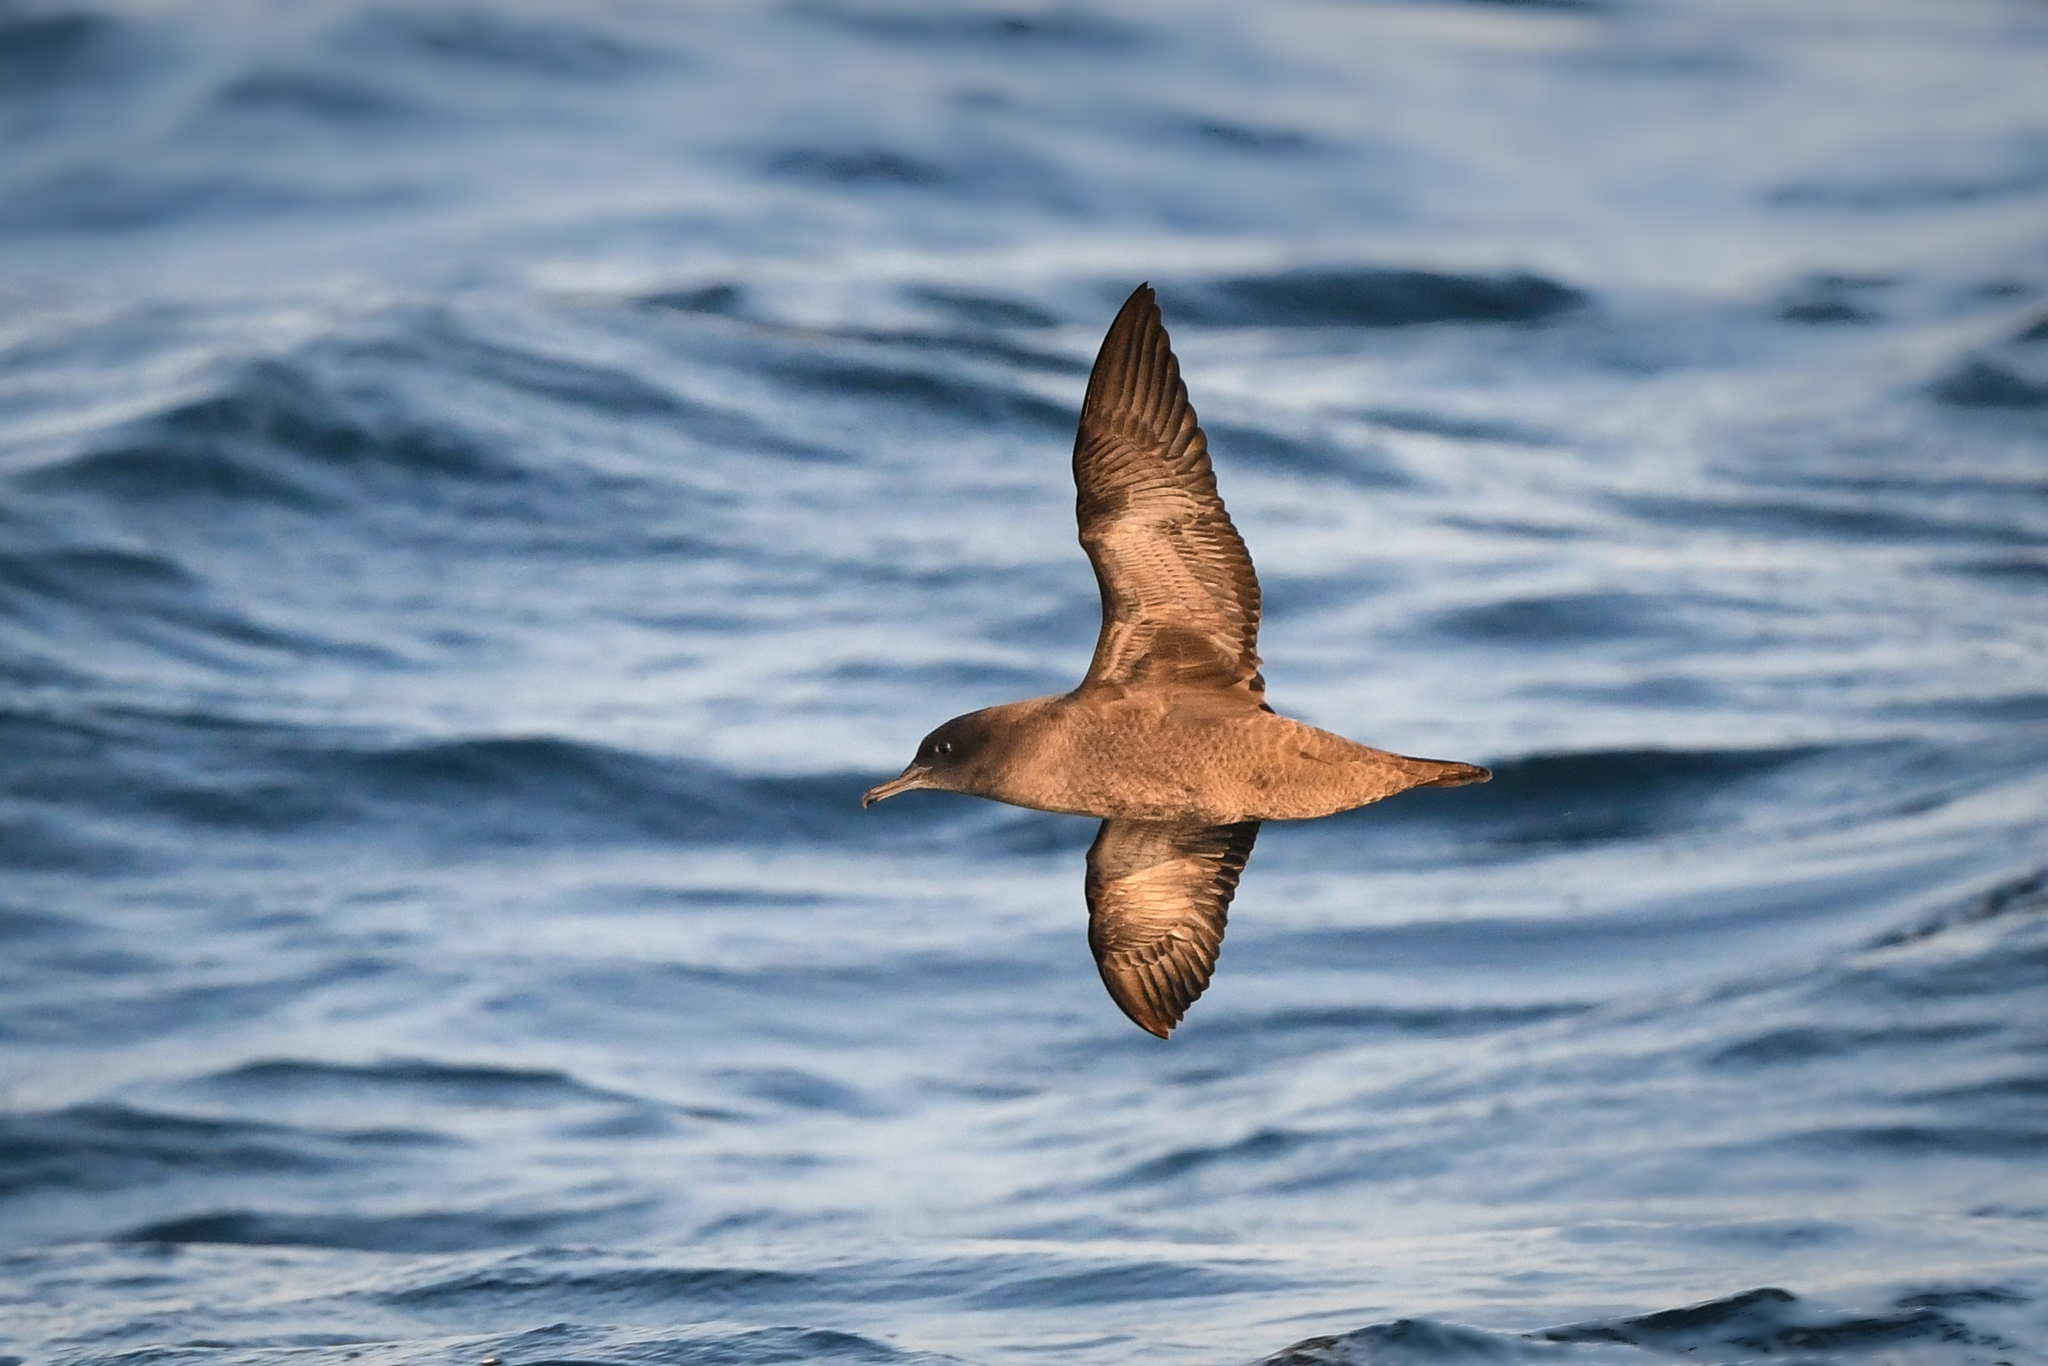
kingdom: Animalia
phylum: Chordata
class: Aves
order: Procellariiformes
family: Procellariidae
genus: Puffinus
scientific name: Puffinus griseus
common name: Sooty shearwater
